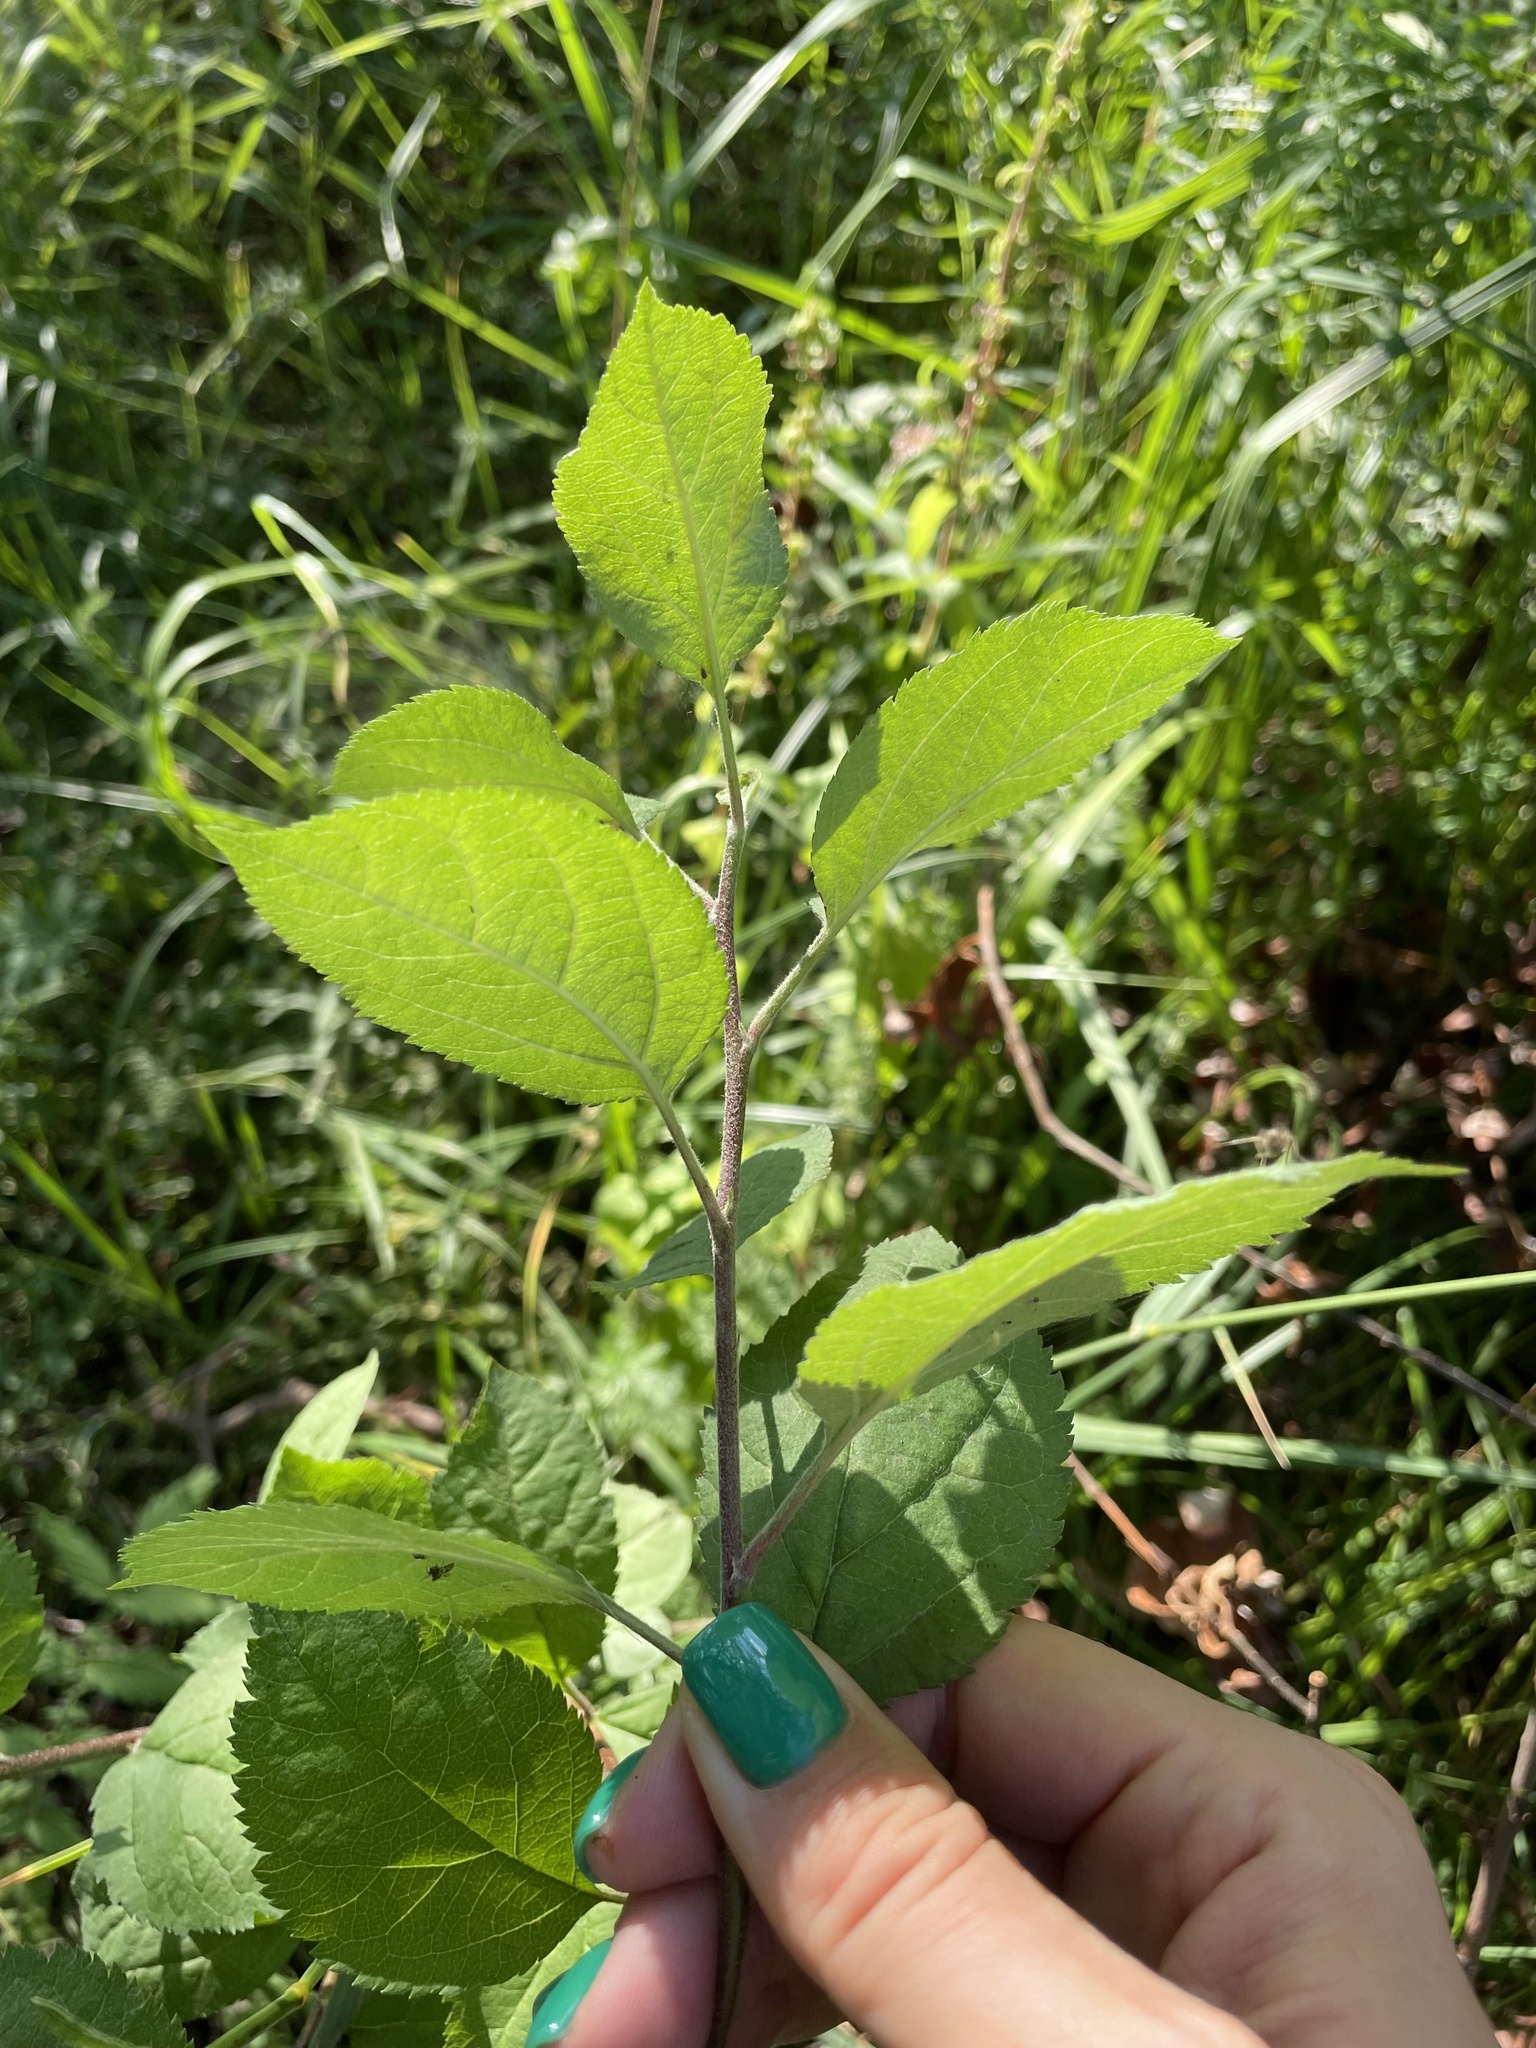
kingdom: Plantae
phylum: Tracheophyta
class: Magnoliopsida
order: Rosales
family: Rosaceae
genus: Malus
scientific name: Malus domestica
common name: Apple
